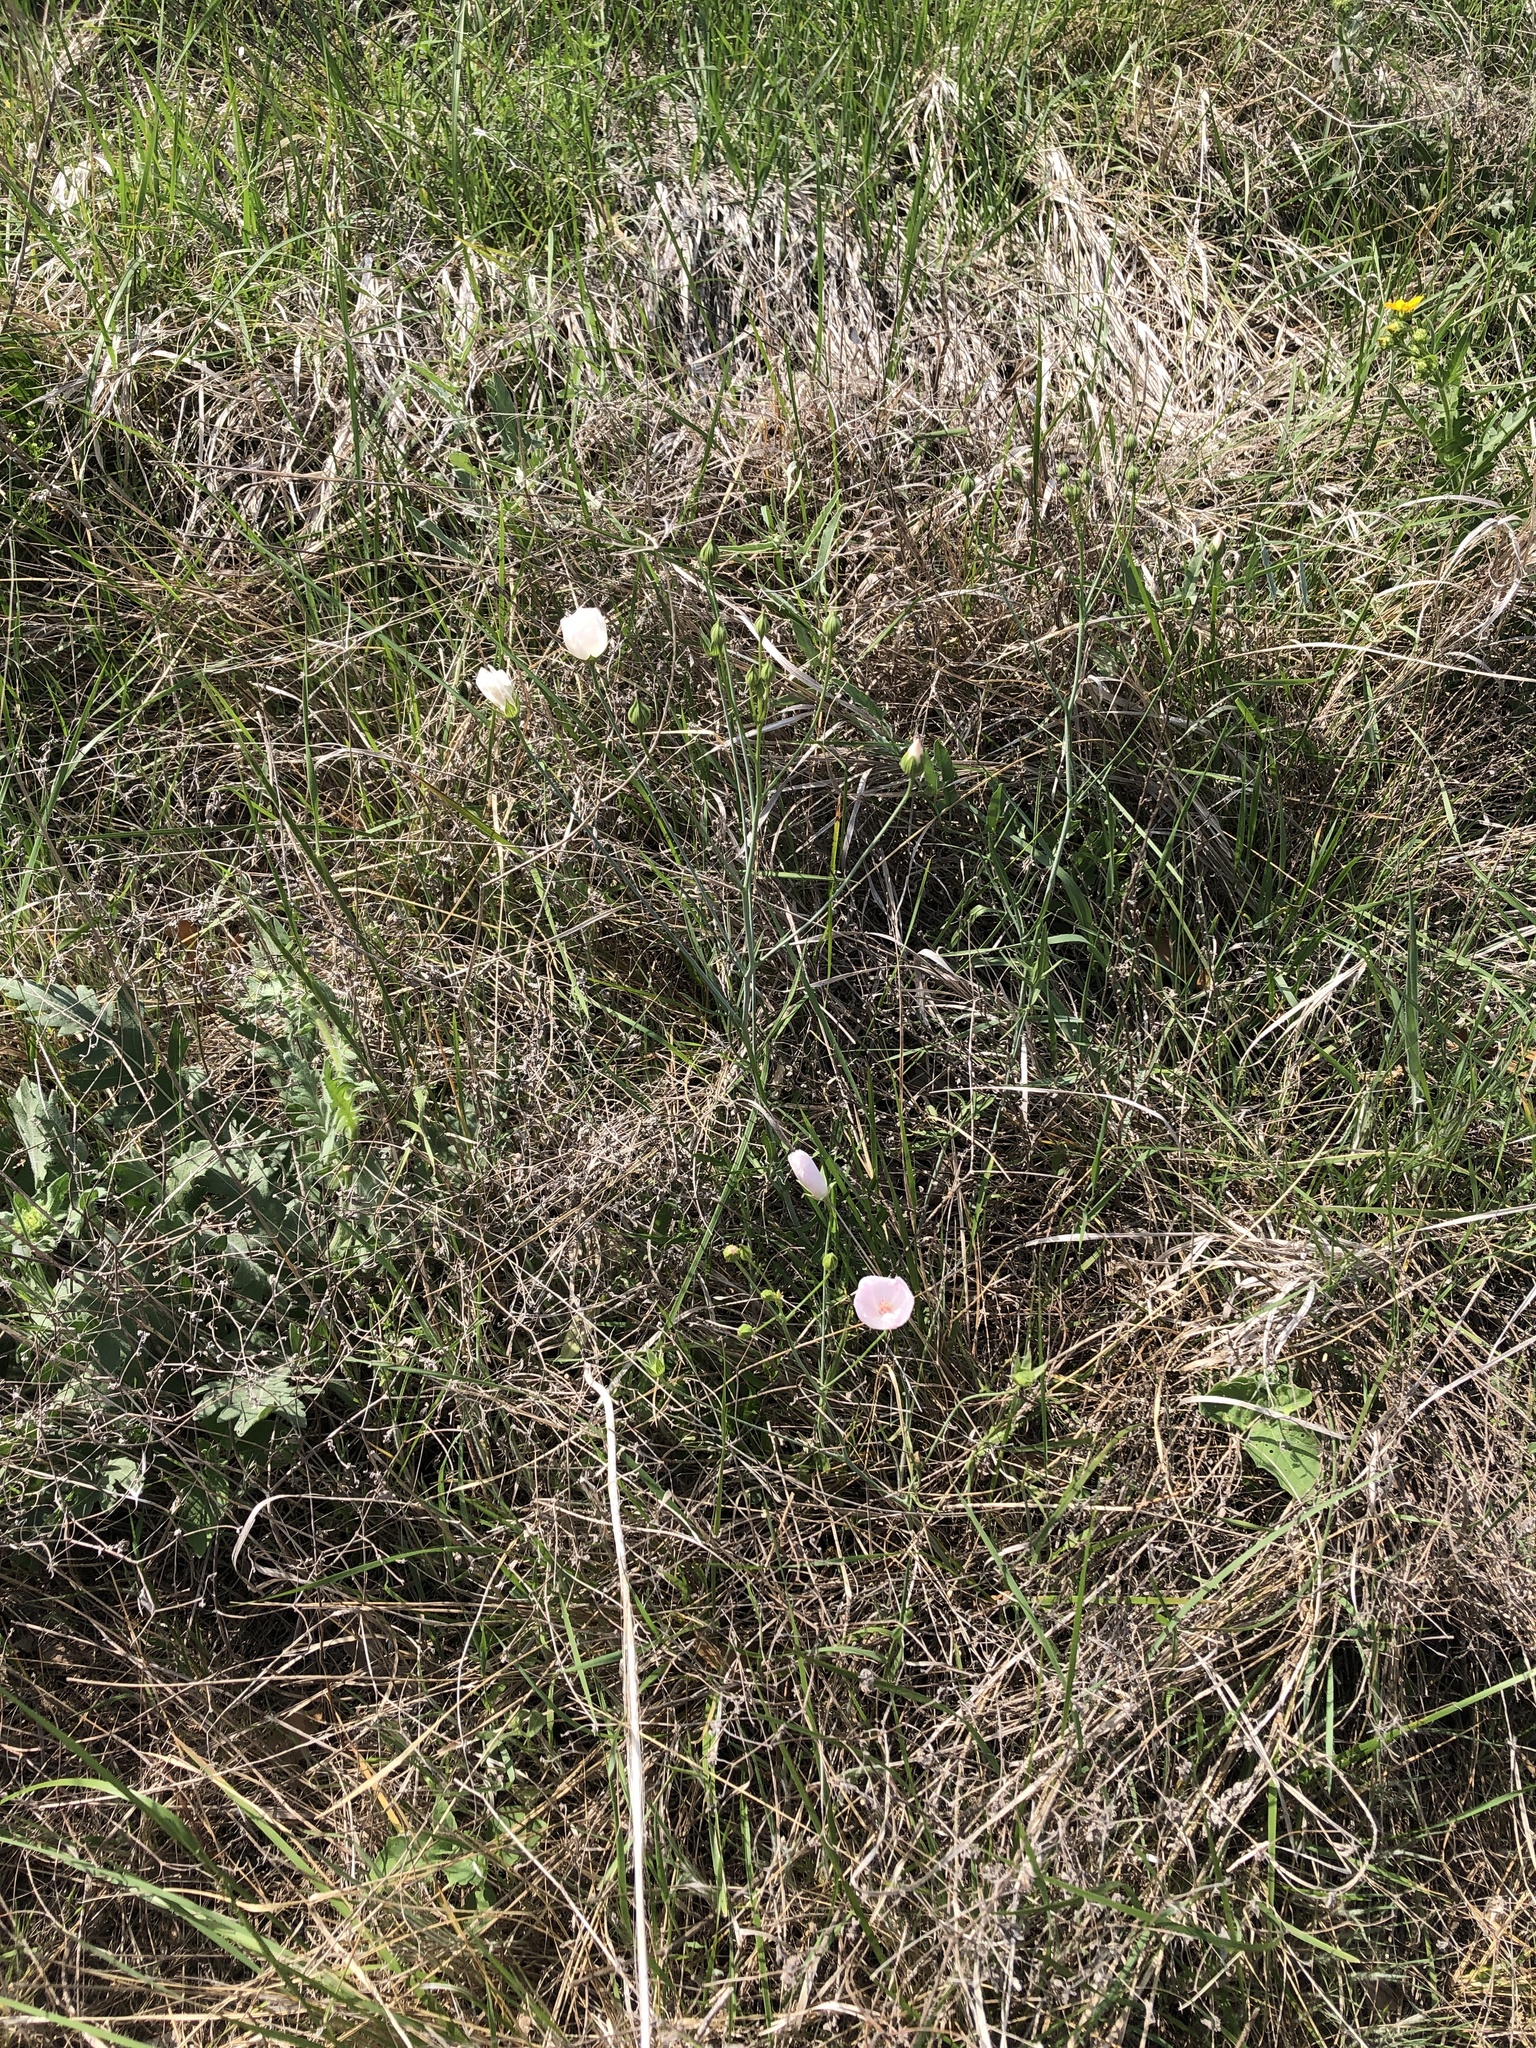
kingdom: Plantae
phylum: Tracheophyta
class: Magnoliopsida
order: Malvales
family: Malvaceae
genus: Callirhoe
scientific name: Callirhoe pedata
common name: Finger poppy-mallow
